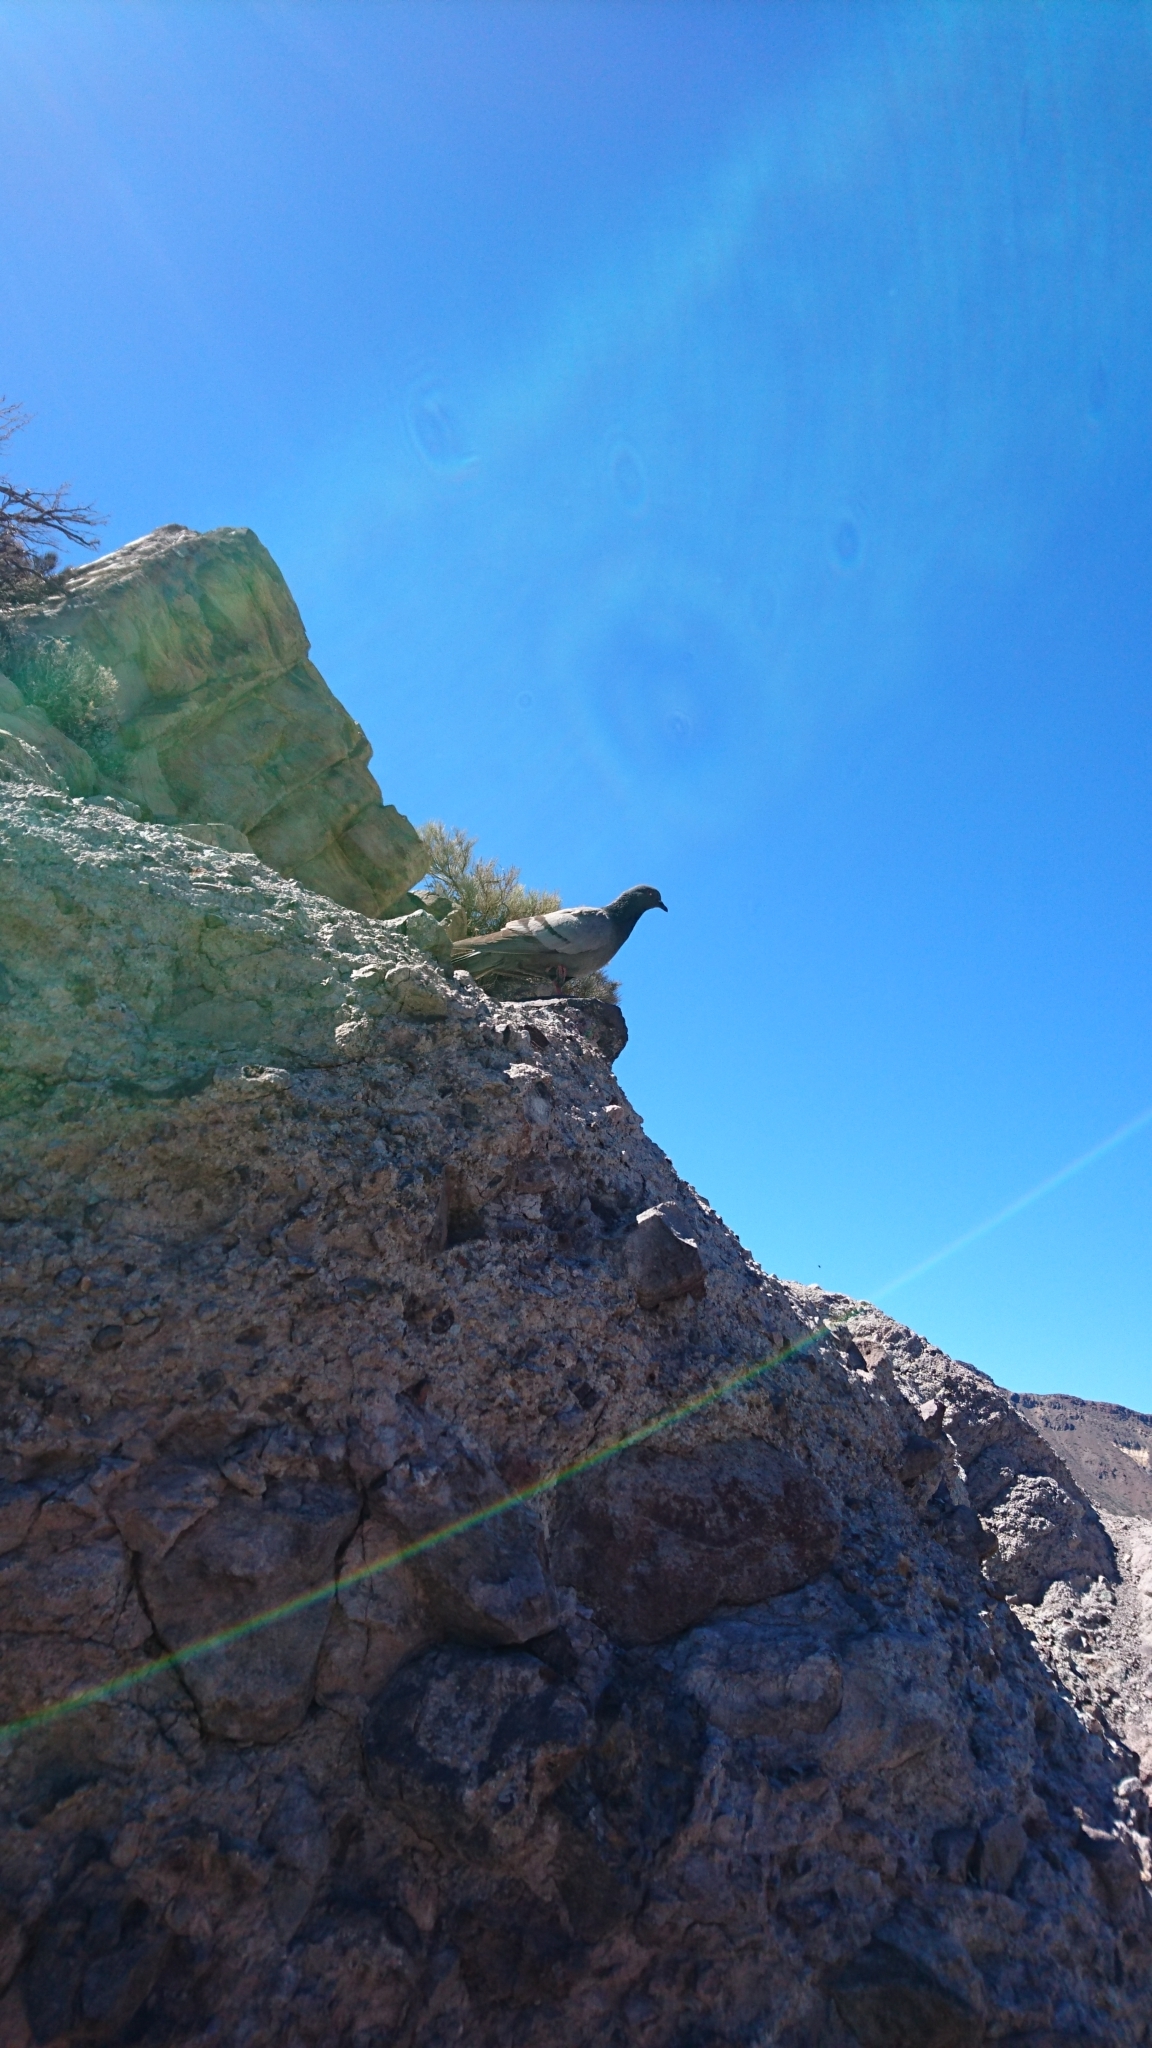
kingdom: Animalia
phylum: Chordata
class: Aves
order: Columbiformes
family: Columbidae
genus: Columba
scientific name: Columba livia
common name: Rock pigeon
